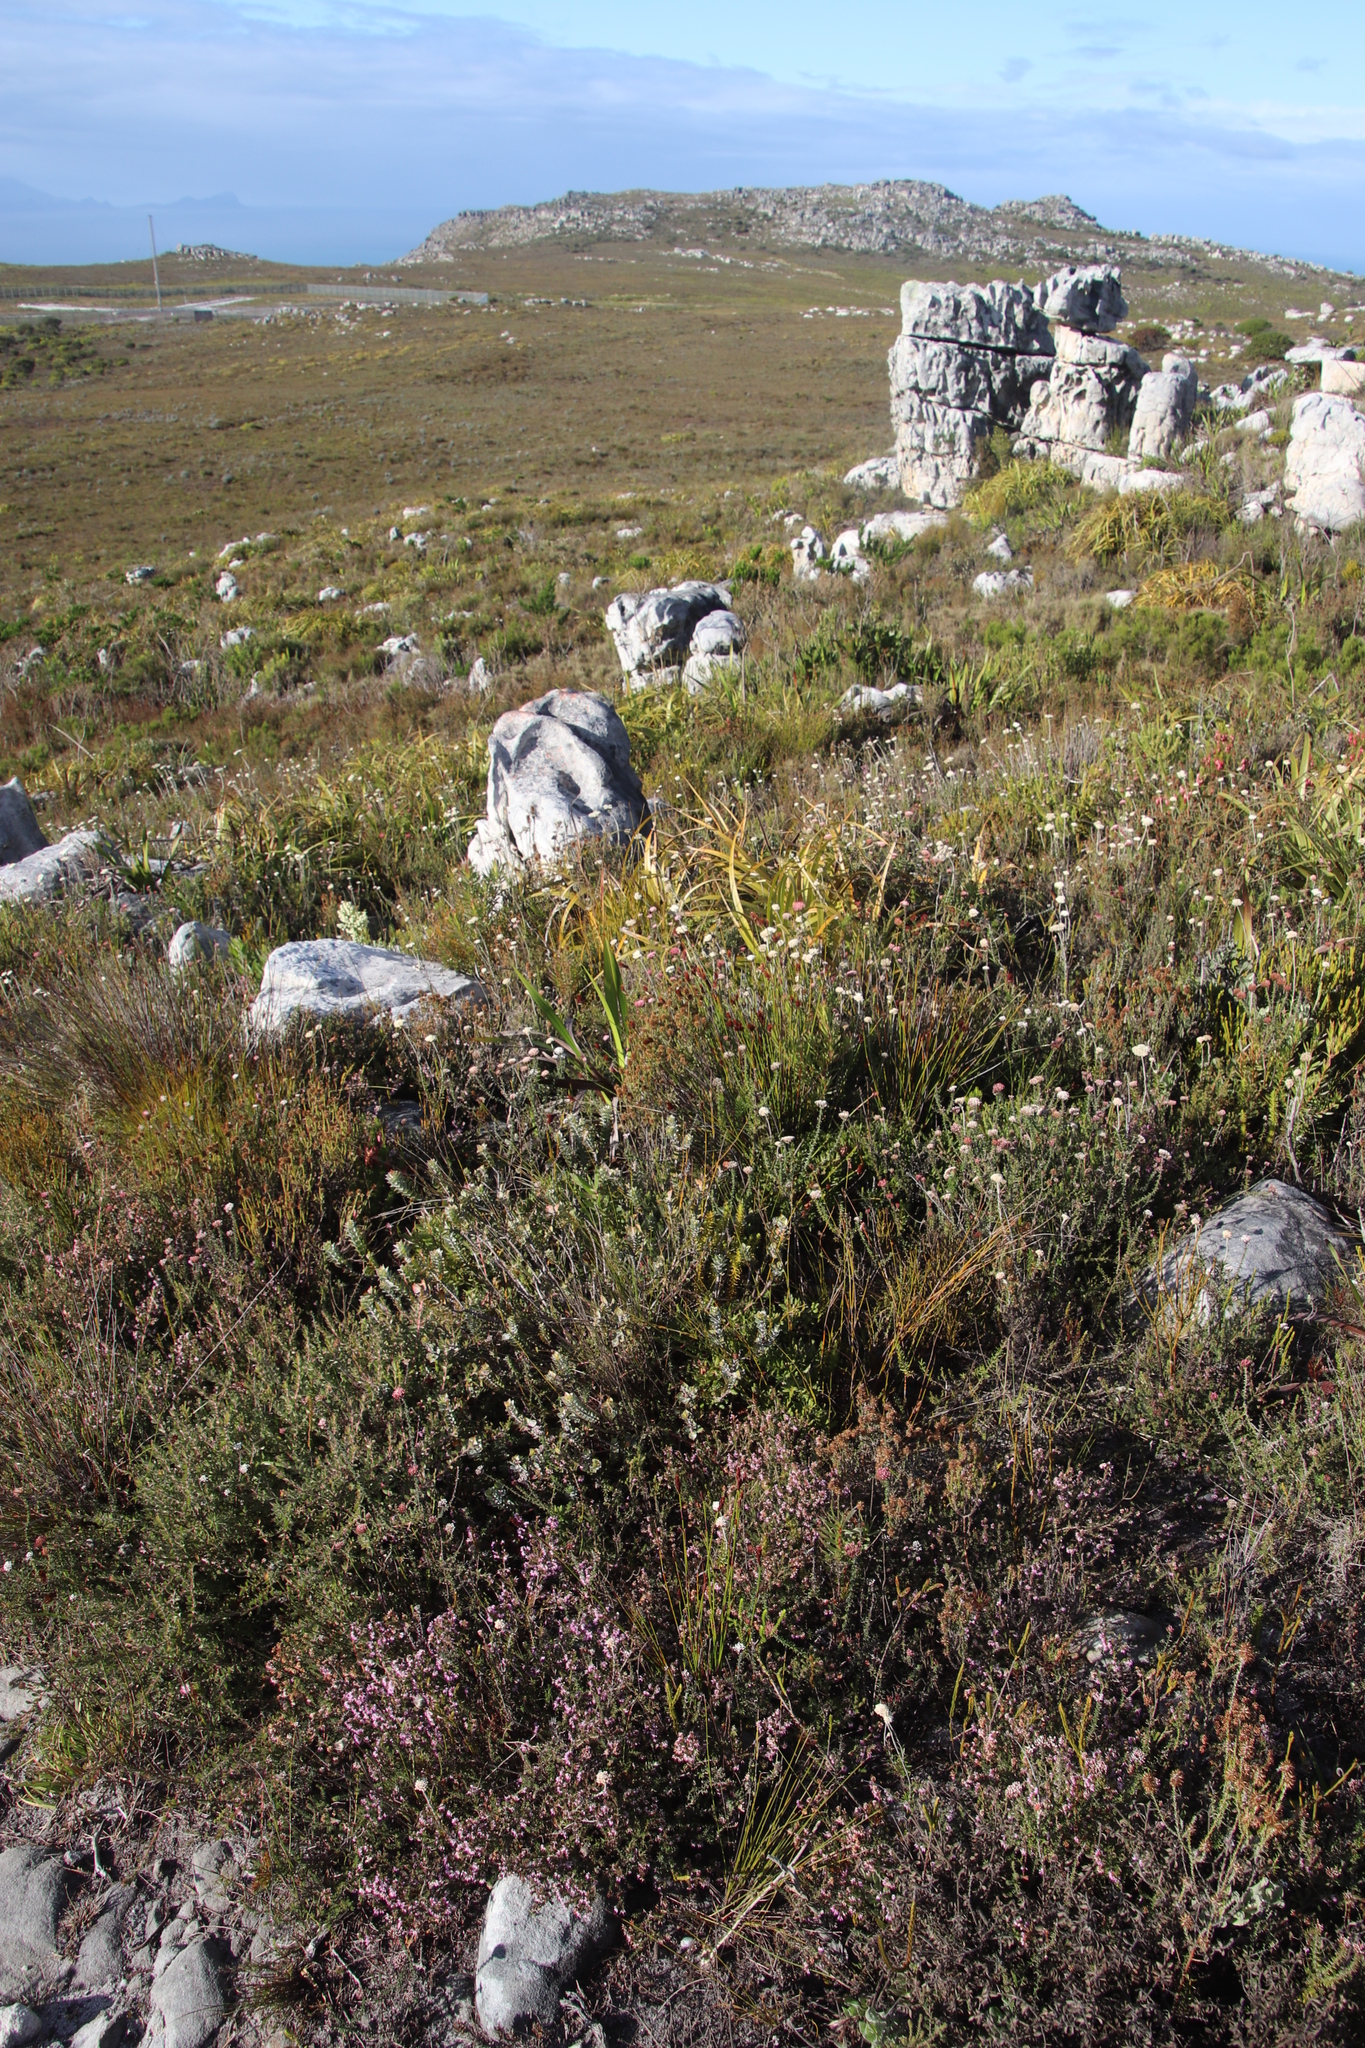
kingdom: Plantae
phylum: Tracheophyta
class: Magnoliopsida
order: Ericales
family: Ericaceae
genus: Erica
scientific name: Erica glabella
